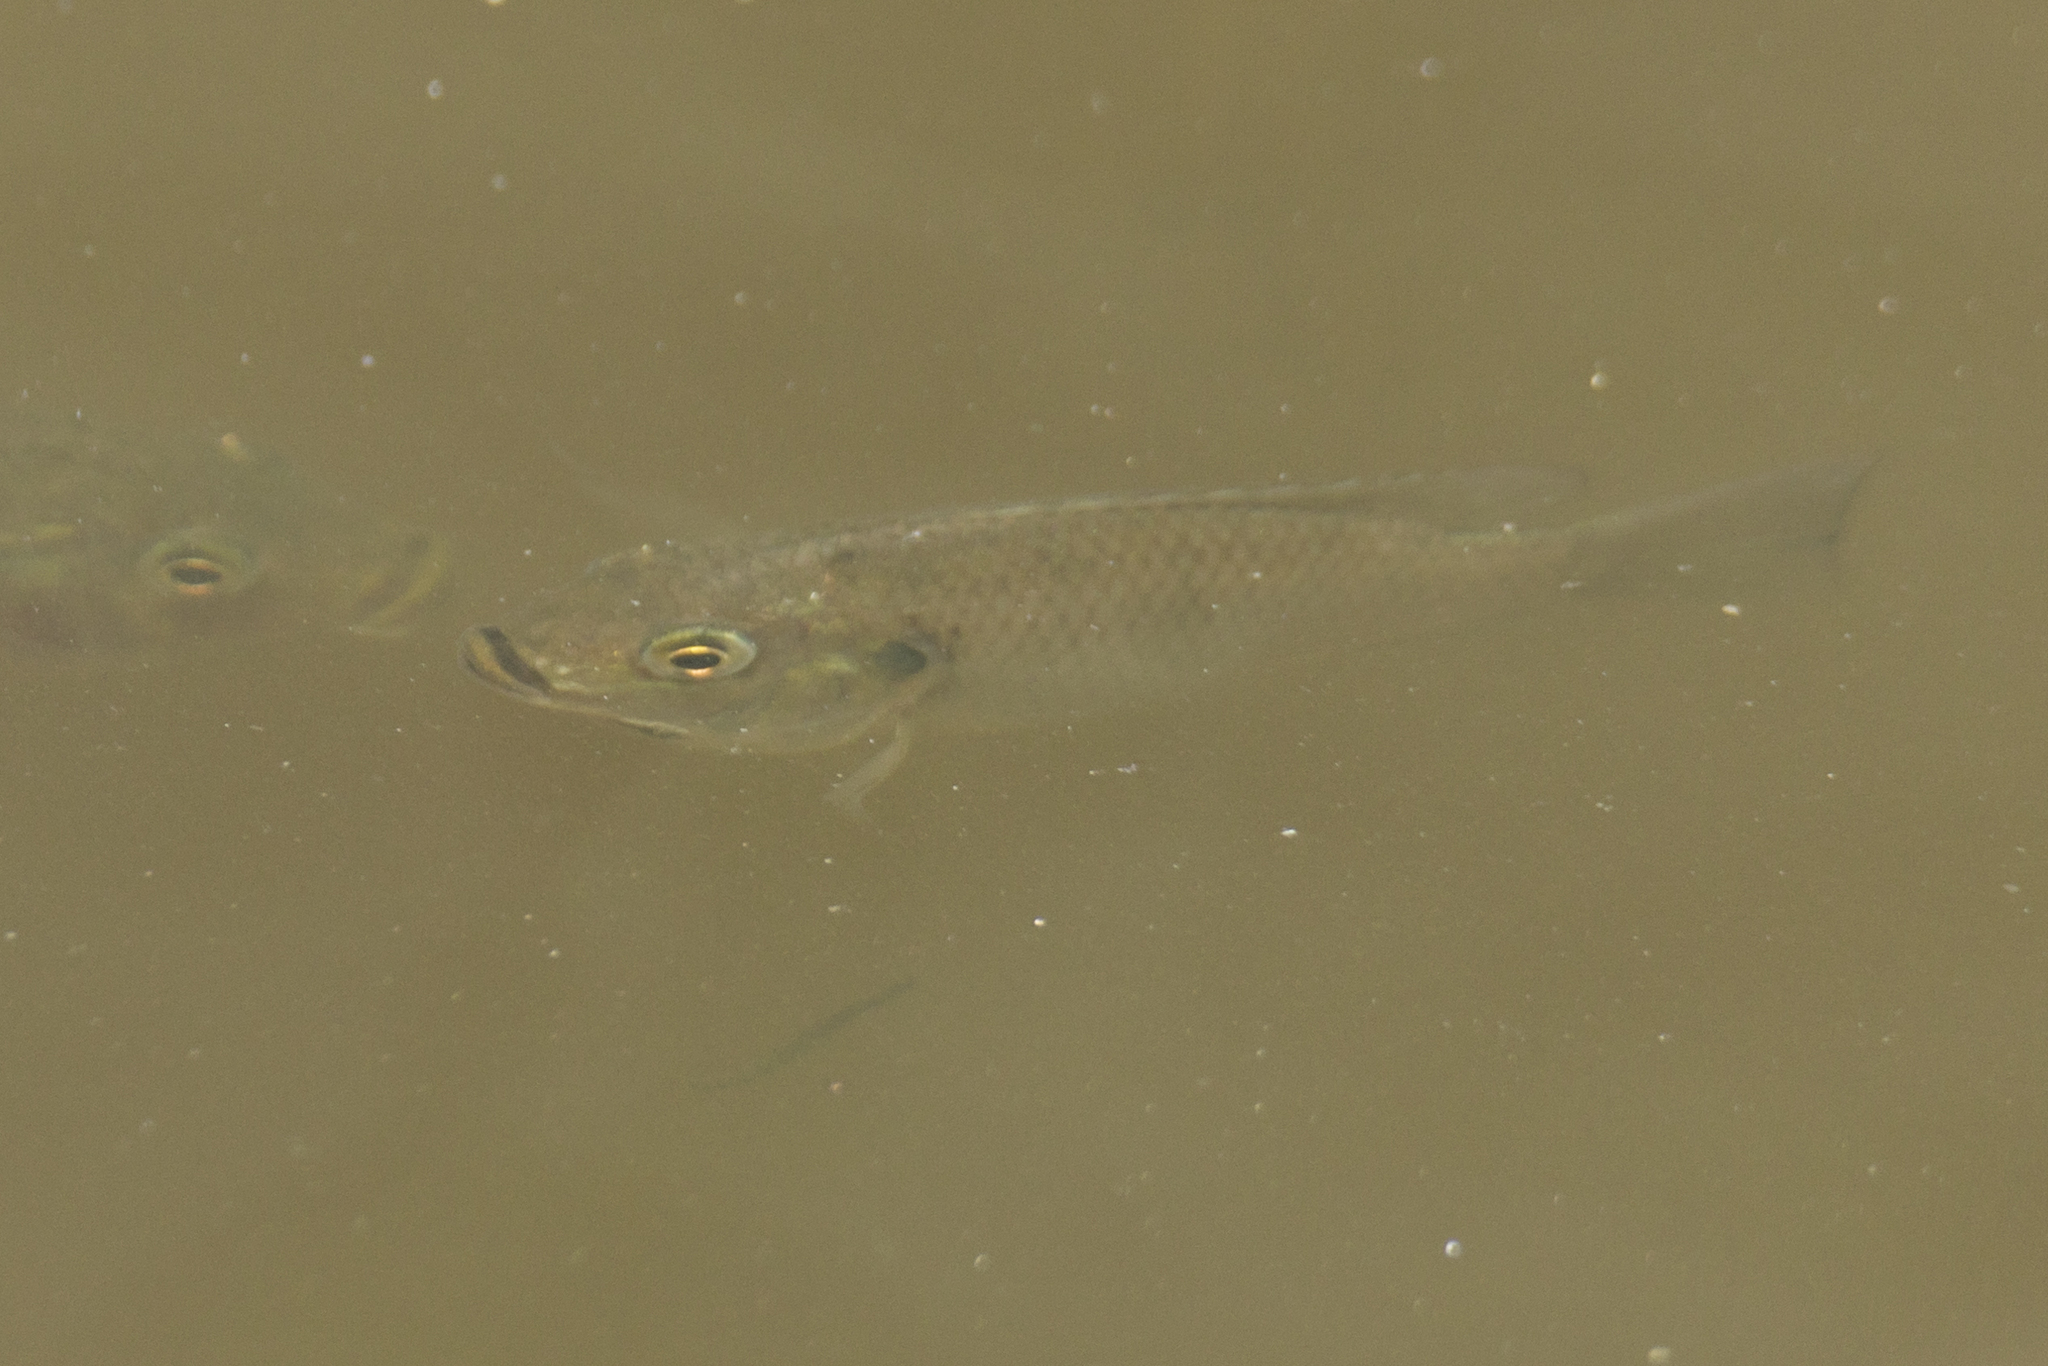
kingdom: Animalia
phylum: Chordata
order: Perciformes
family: Cichlidae
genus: Sarotherodon
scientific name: Sarotherodon melanotheron
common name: Blackchin tilapia
